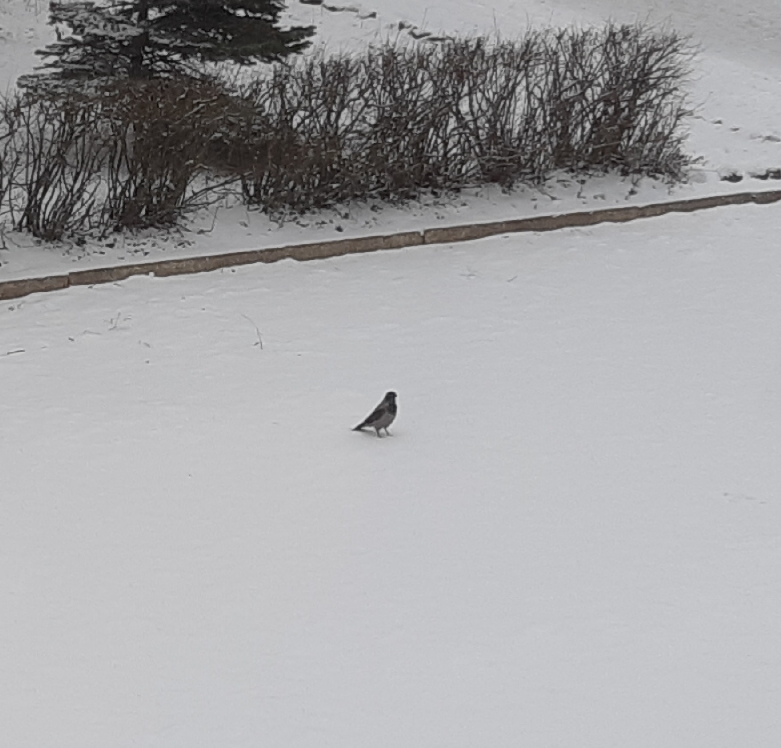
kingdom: Animalia
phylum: Chordata
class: Aves
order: Passeriformes
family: Corvidae
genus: Corvus
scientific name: Corvus cornix
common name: Hooded crow
